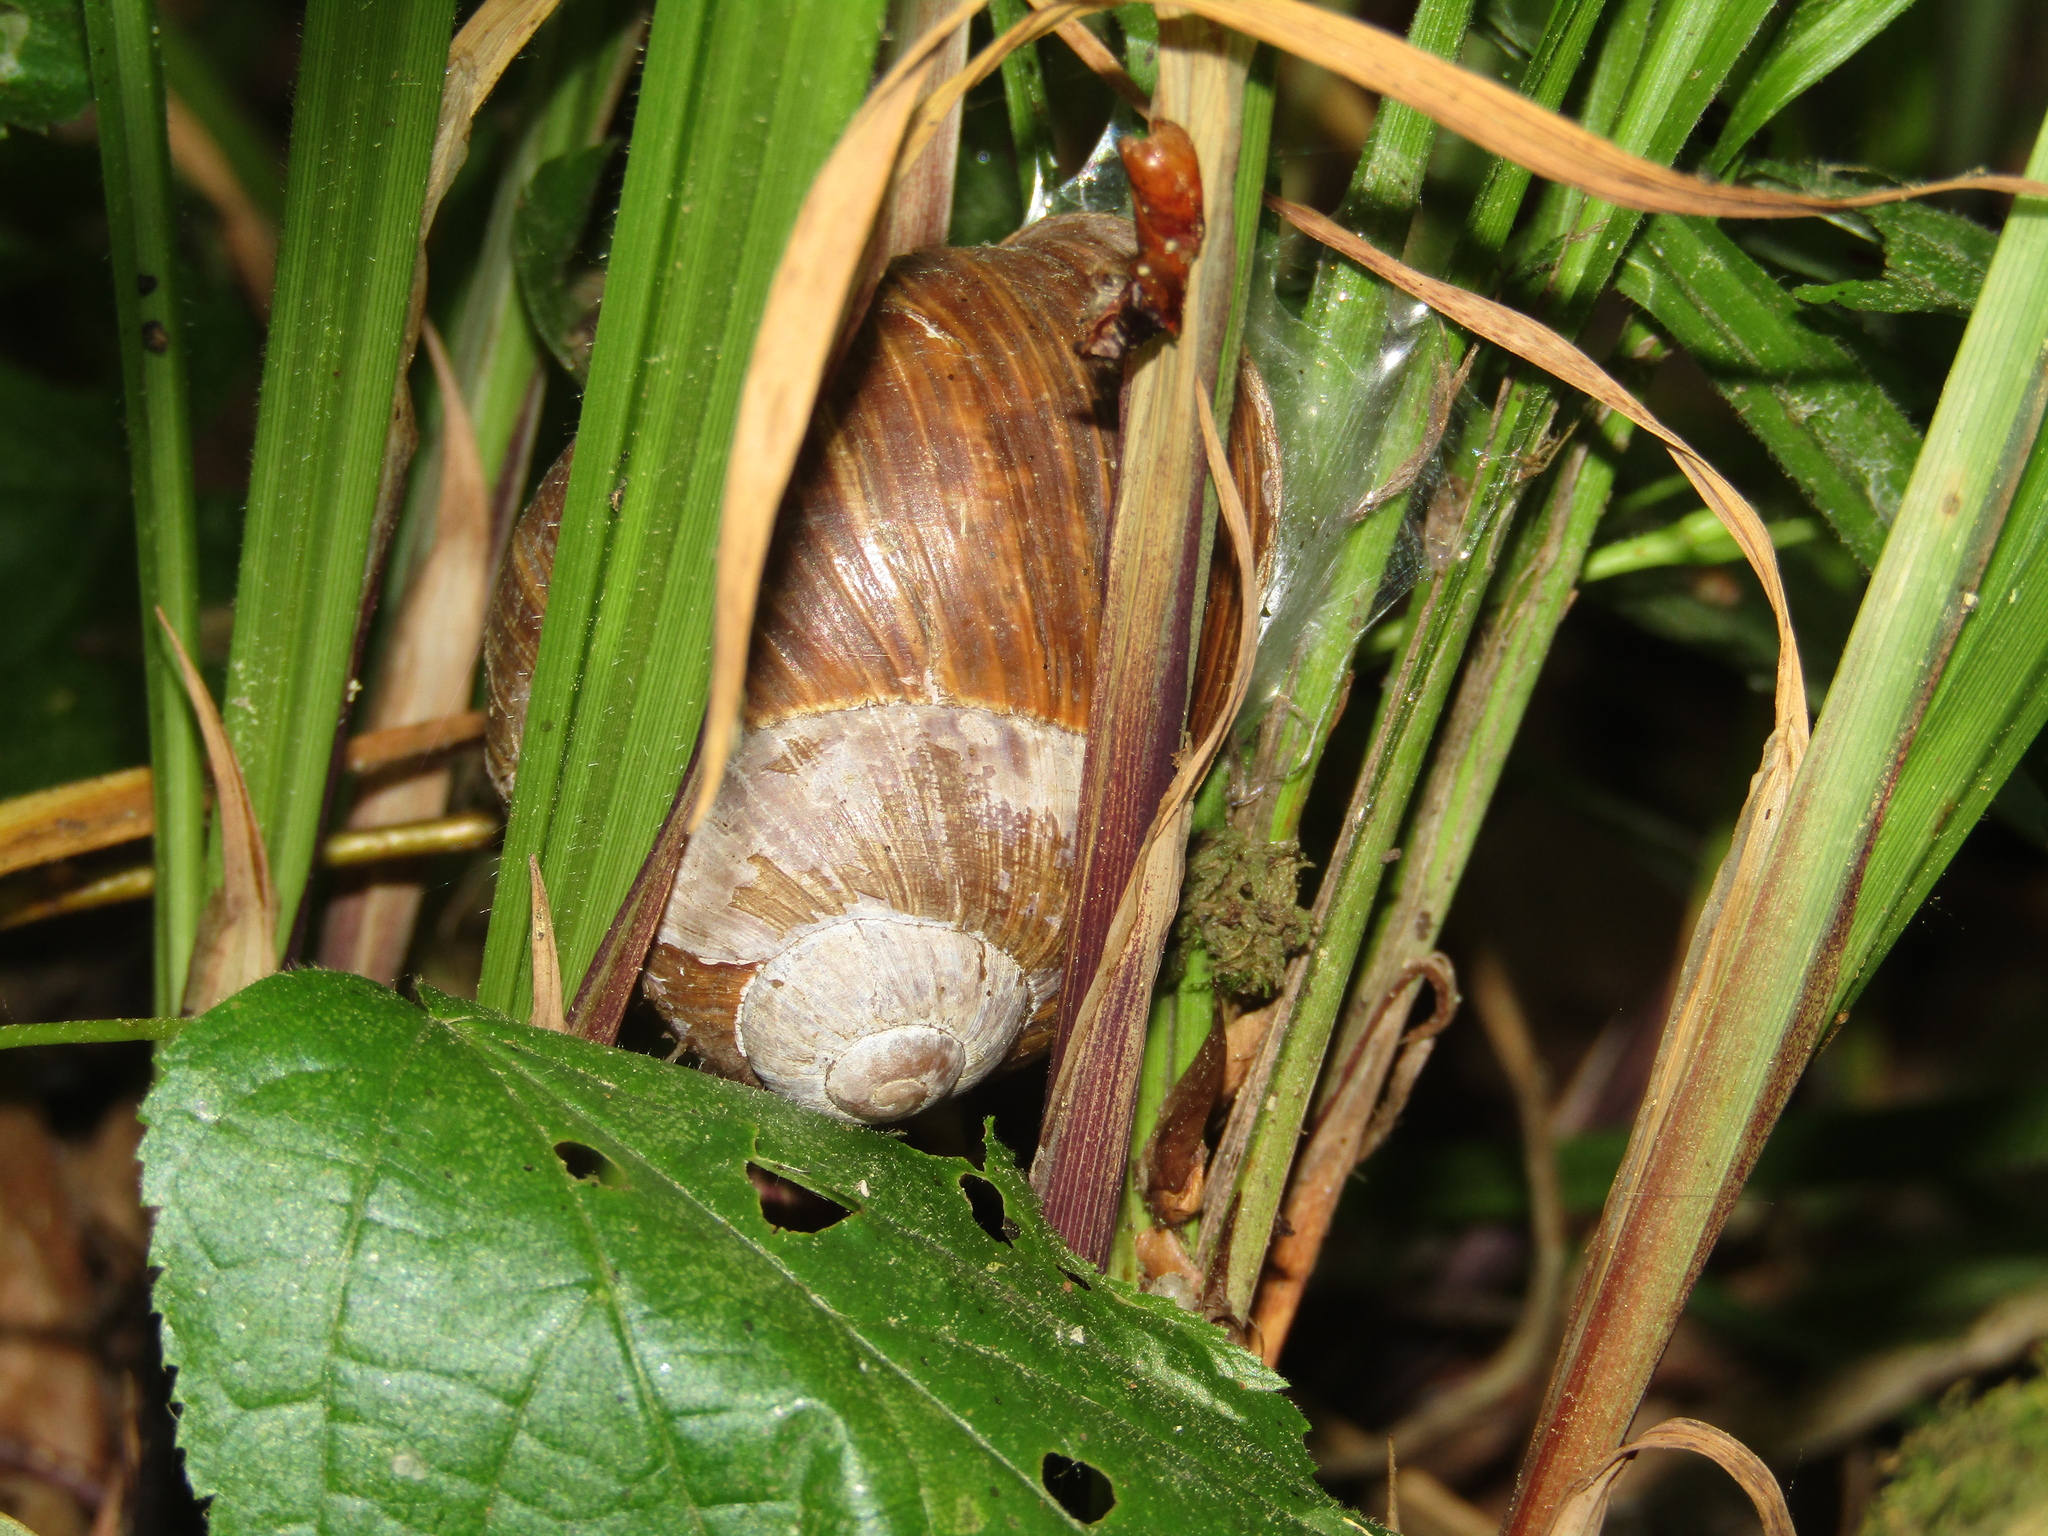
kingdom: Animalia
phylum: Mollusca
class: Gastropoda
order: Stylommatophora
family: Helicidae
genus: Helix
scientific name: Helix pomatia
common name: Roman snail
